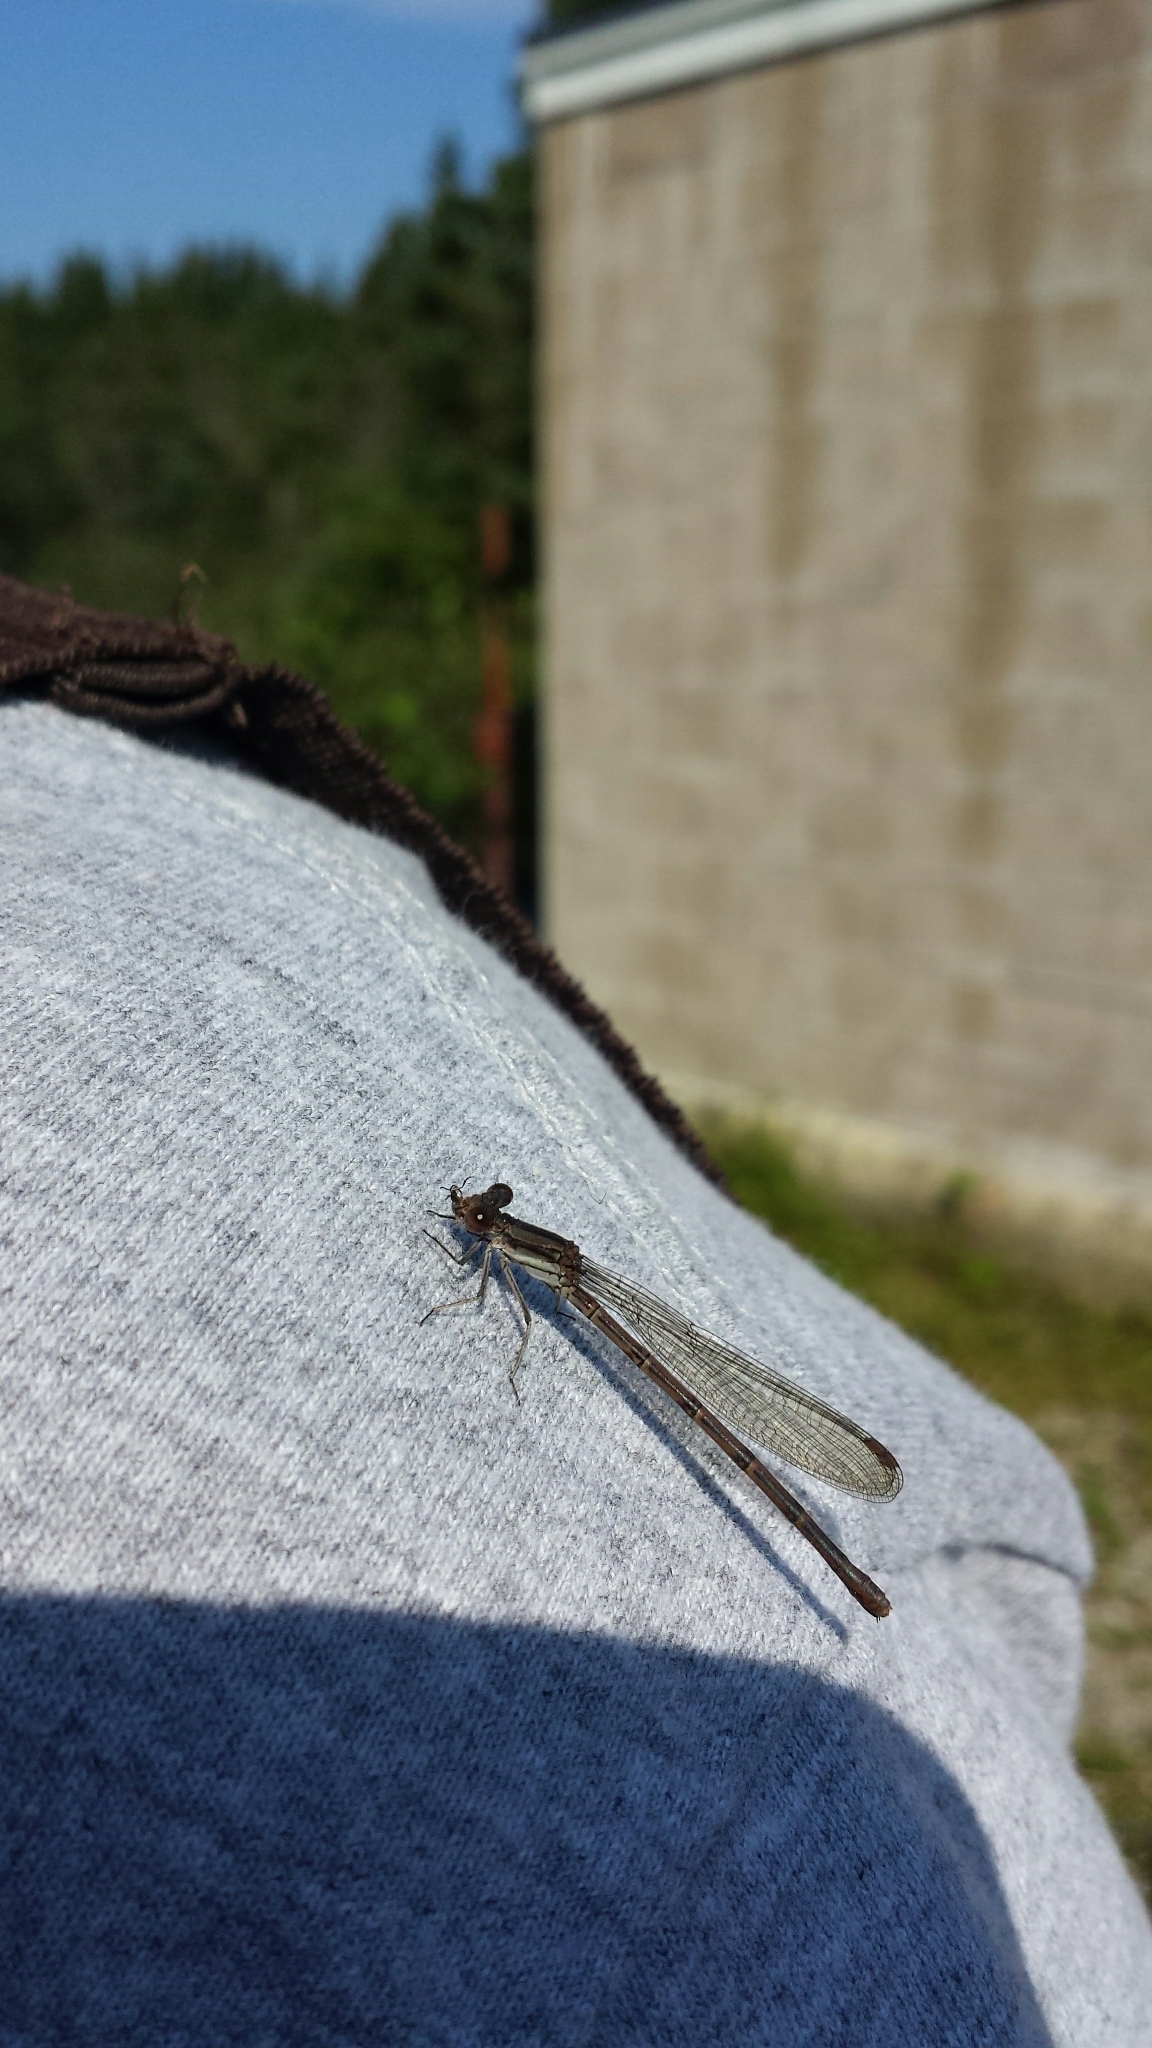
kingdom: Animalia
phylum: Arthropoda
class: Insecta
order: Odonata
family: Coenagrionidae
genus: Argia
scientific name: Argia fumipennis
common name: Variable dancer
